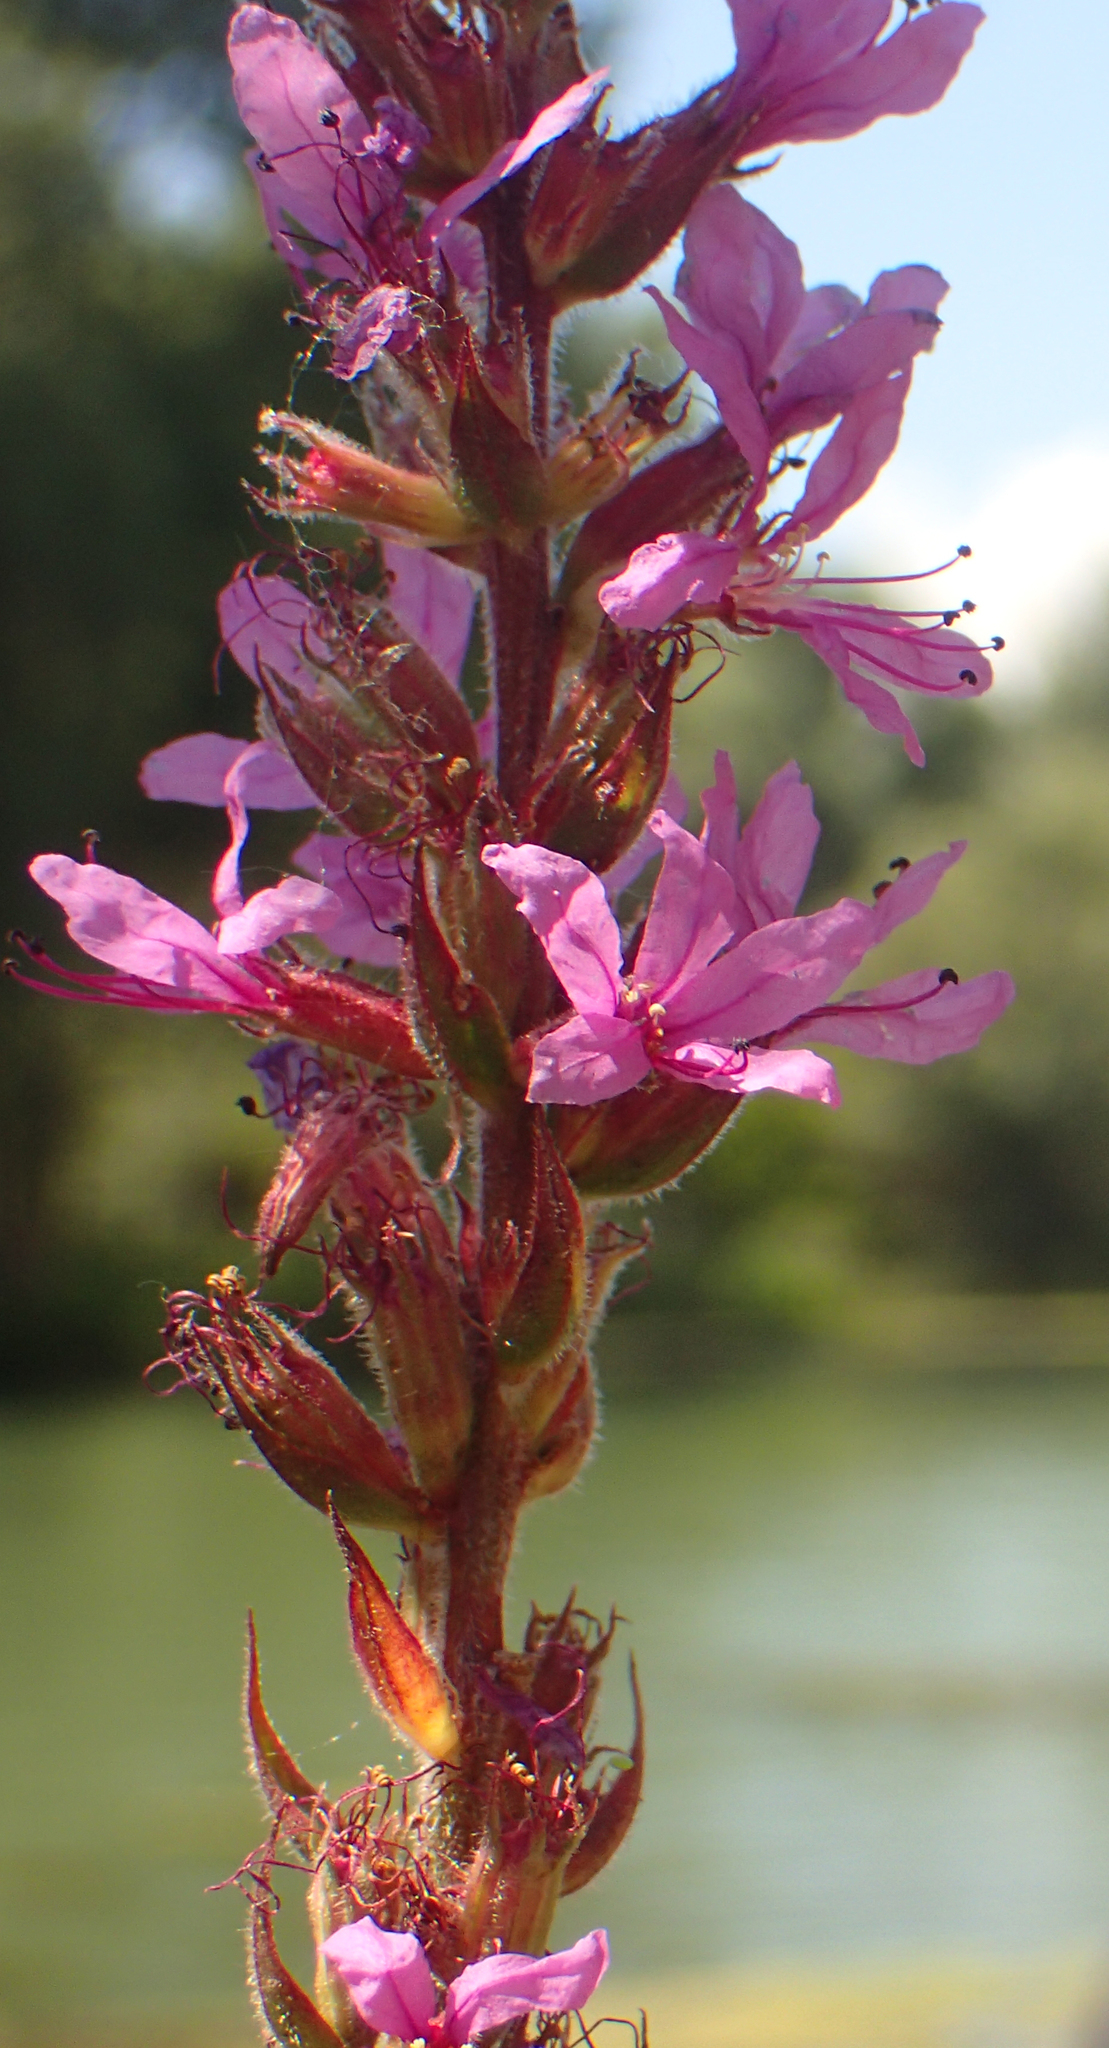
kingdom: Plantae
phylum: Tracheophyta
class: Magnoliopsida
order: Myrtales
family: Lythraceae
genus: Lythrum
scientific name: Lythrum salicaria
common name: Purple loosestrife
